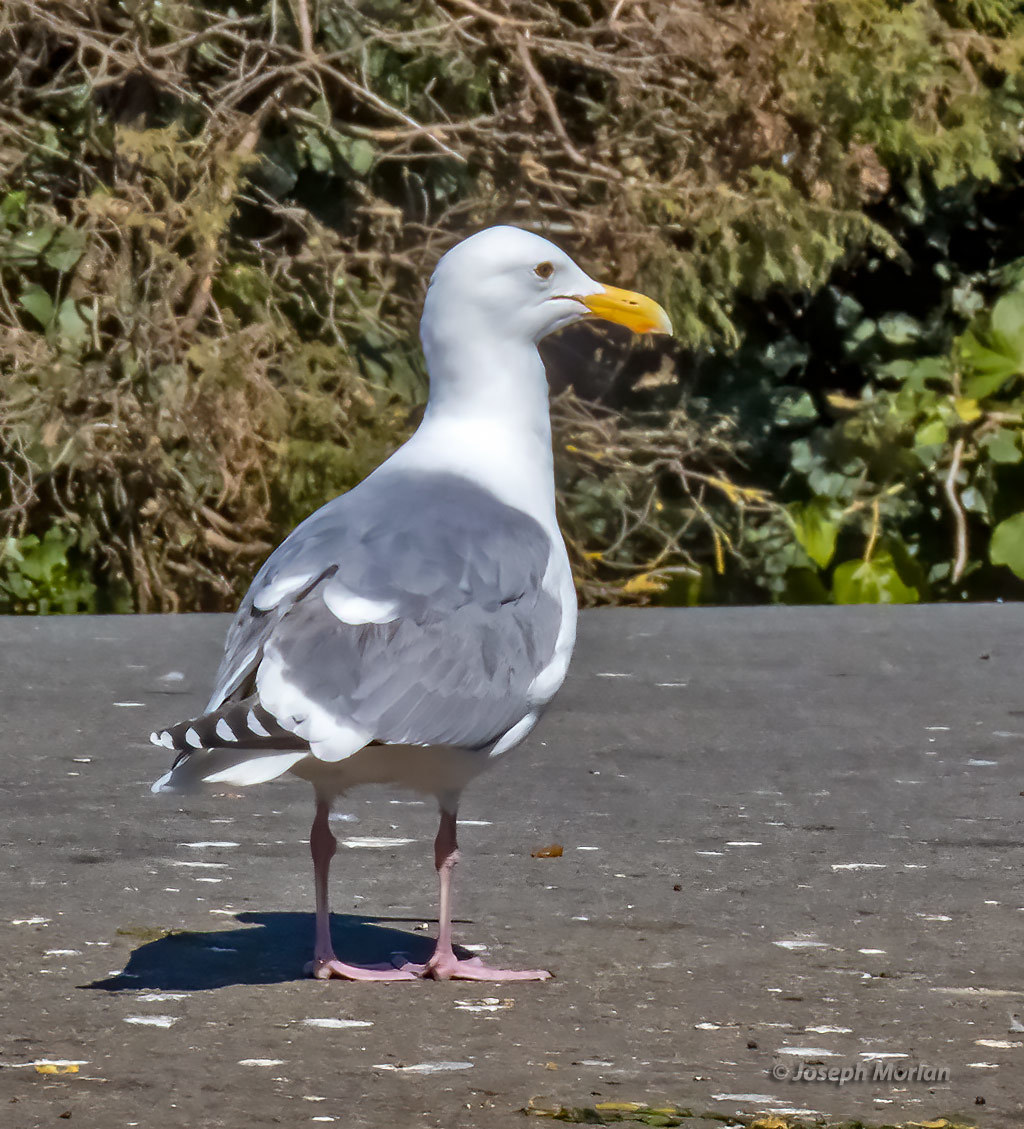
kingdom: Animalia
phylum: Chordata
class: Aves
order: Charadriiformes
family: Laridae
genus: Larus
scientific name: Larus occidentalis
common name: Western gull
